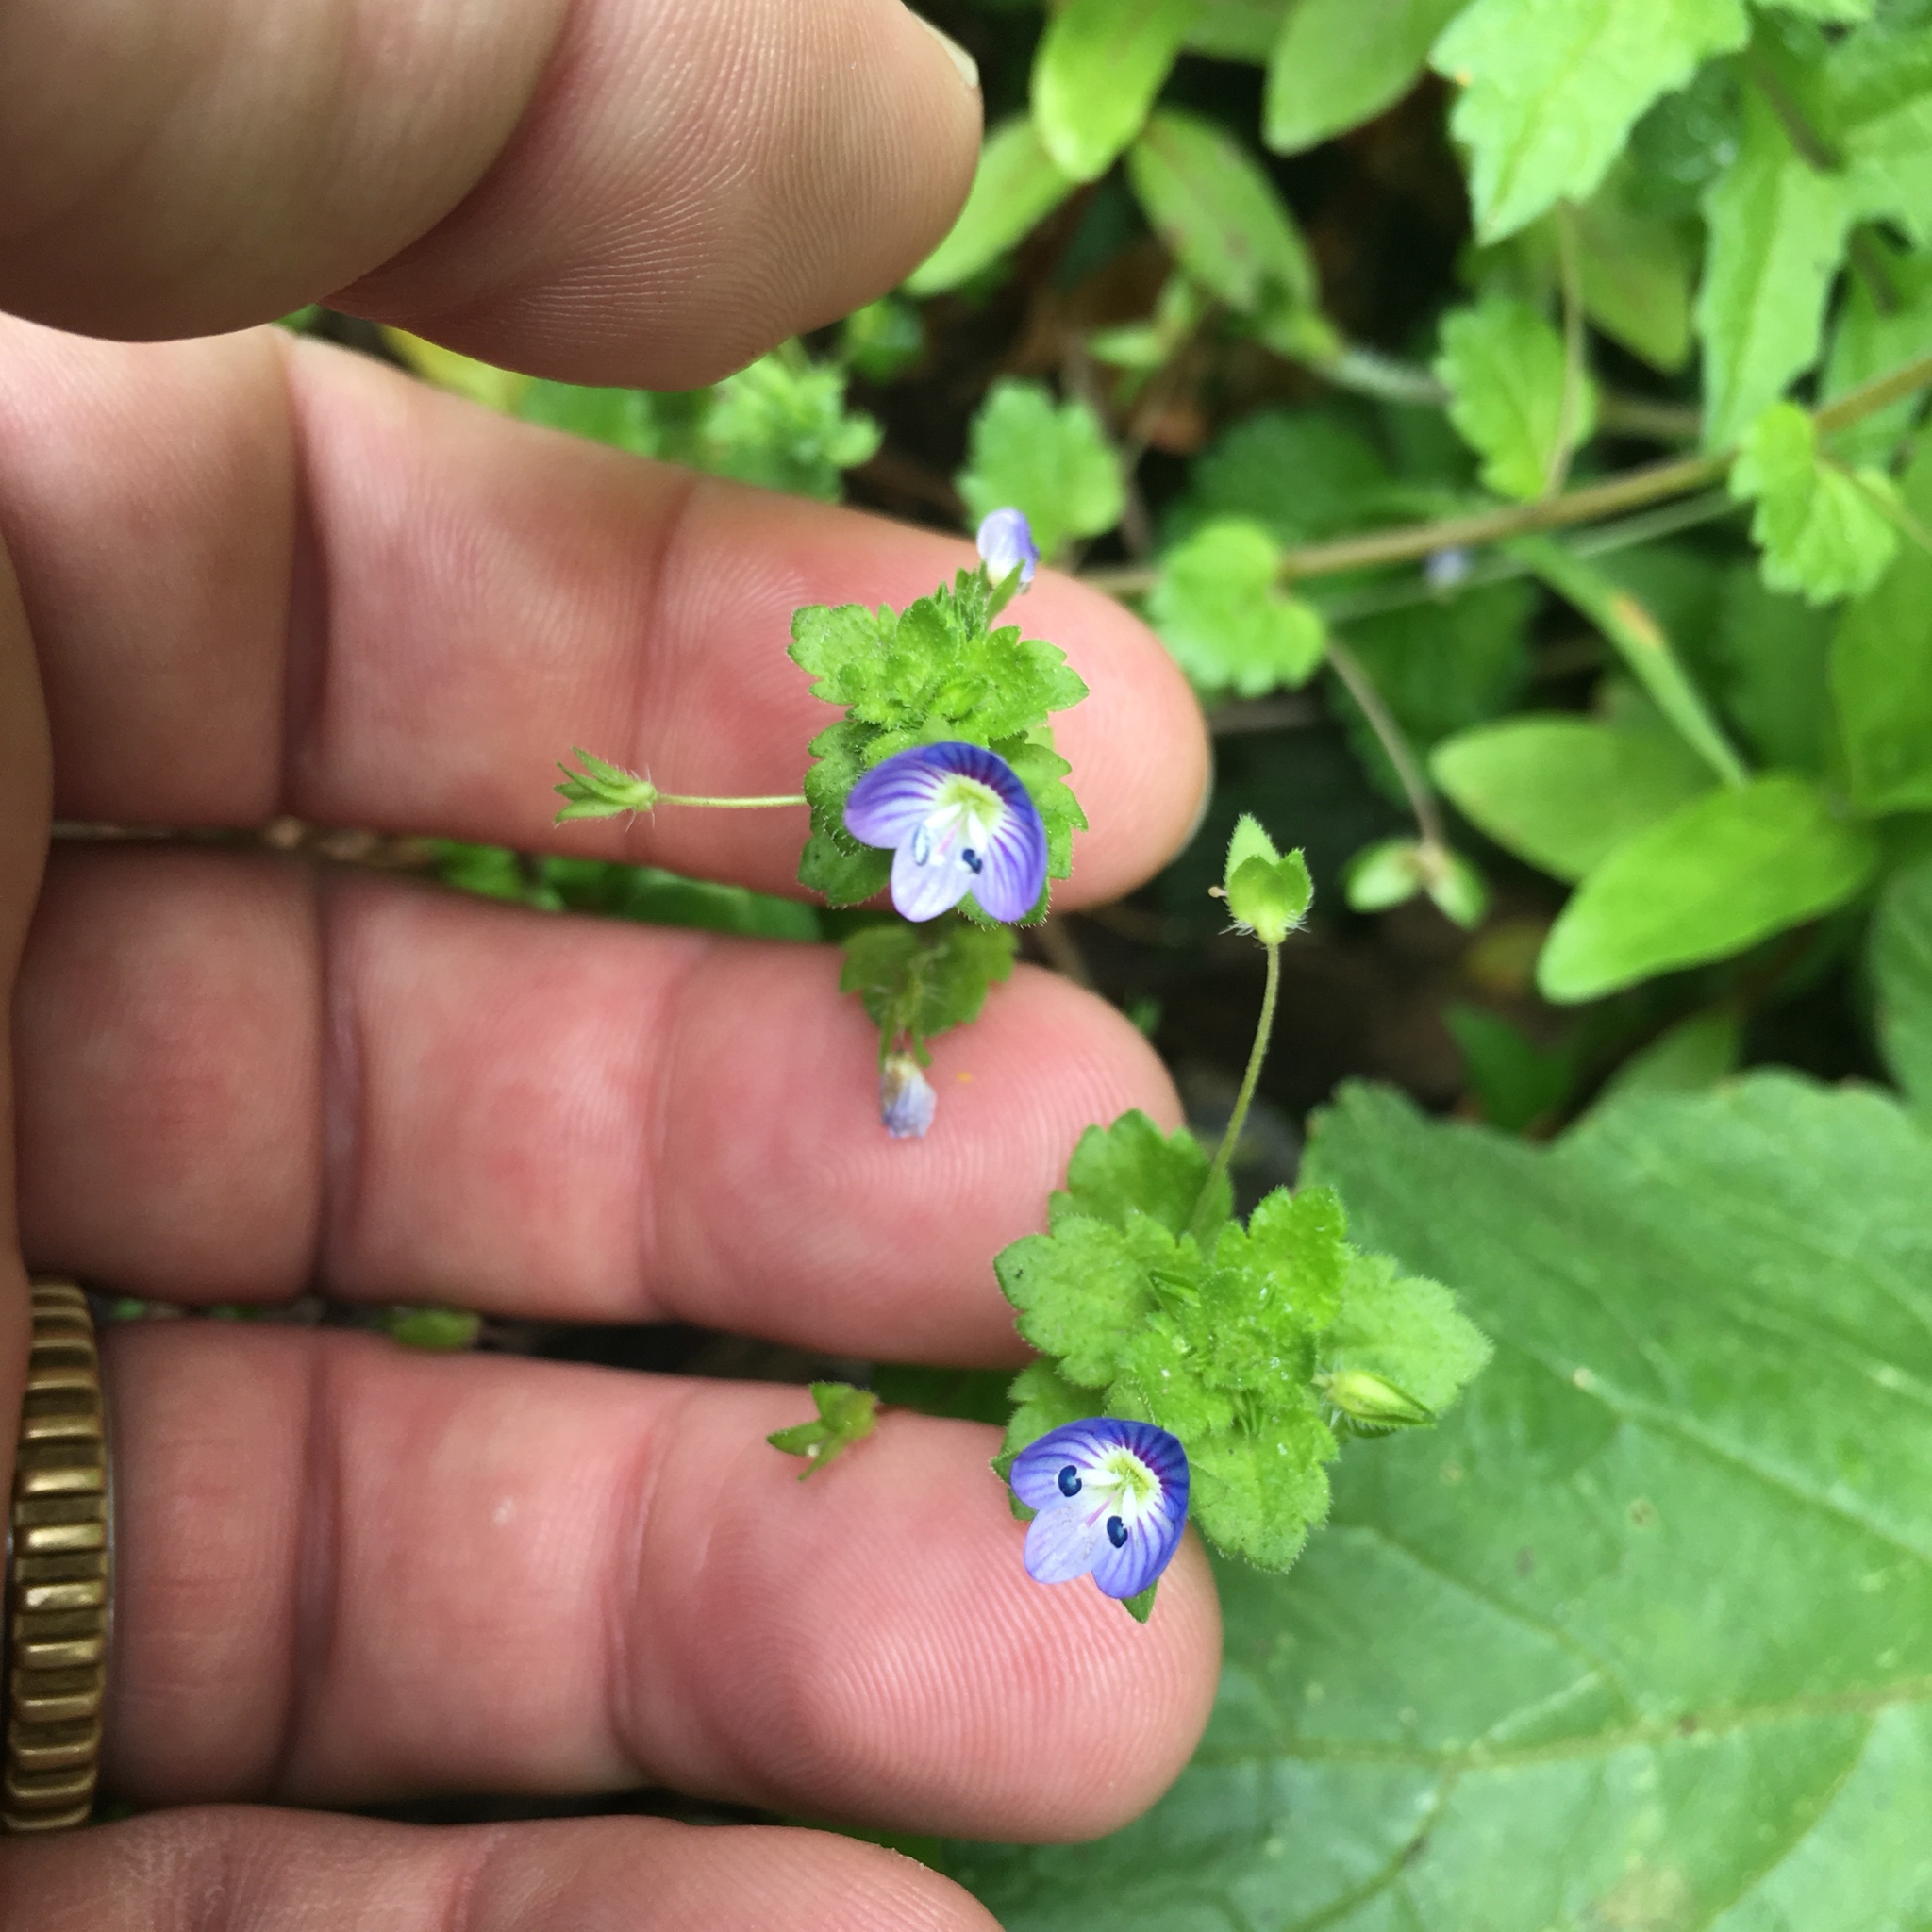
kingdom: Plantae
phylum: Tracheophyta
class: Magnoliopsida
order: Lamiales
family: Plantaginaceae
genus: Veronica
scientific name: Veronica persica
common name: Common field-speedwell
